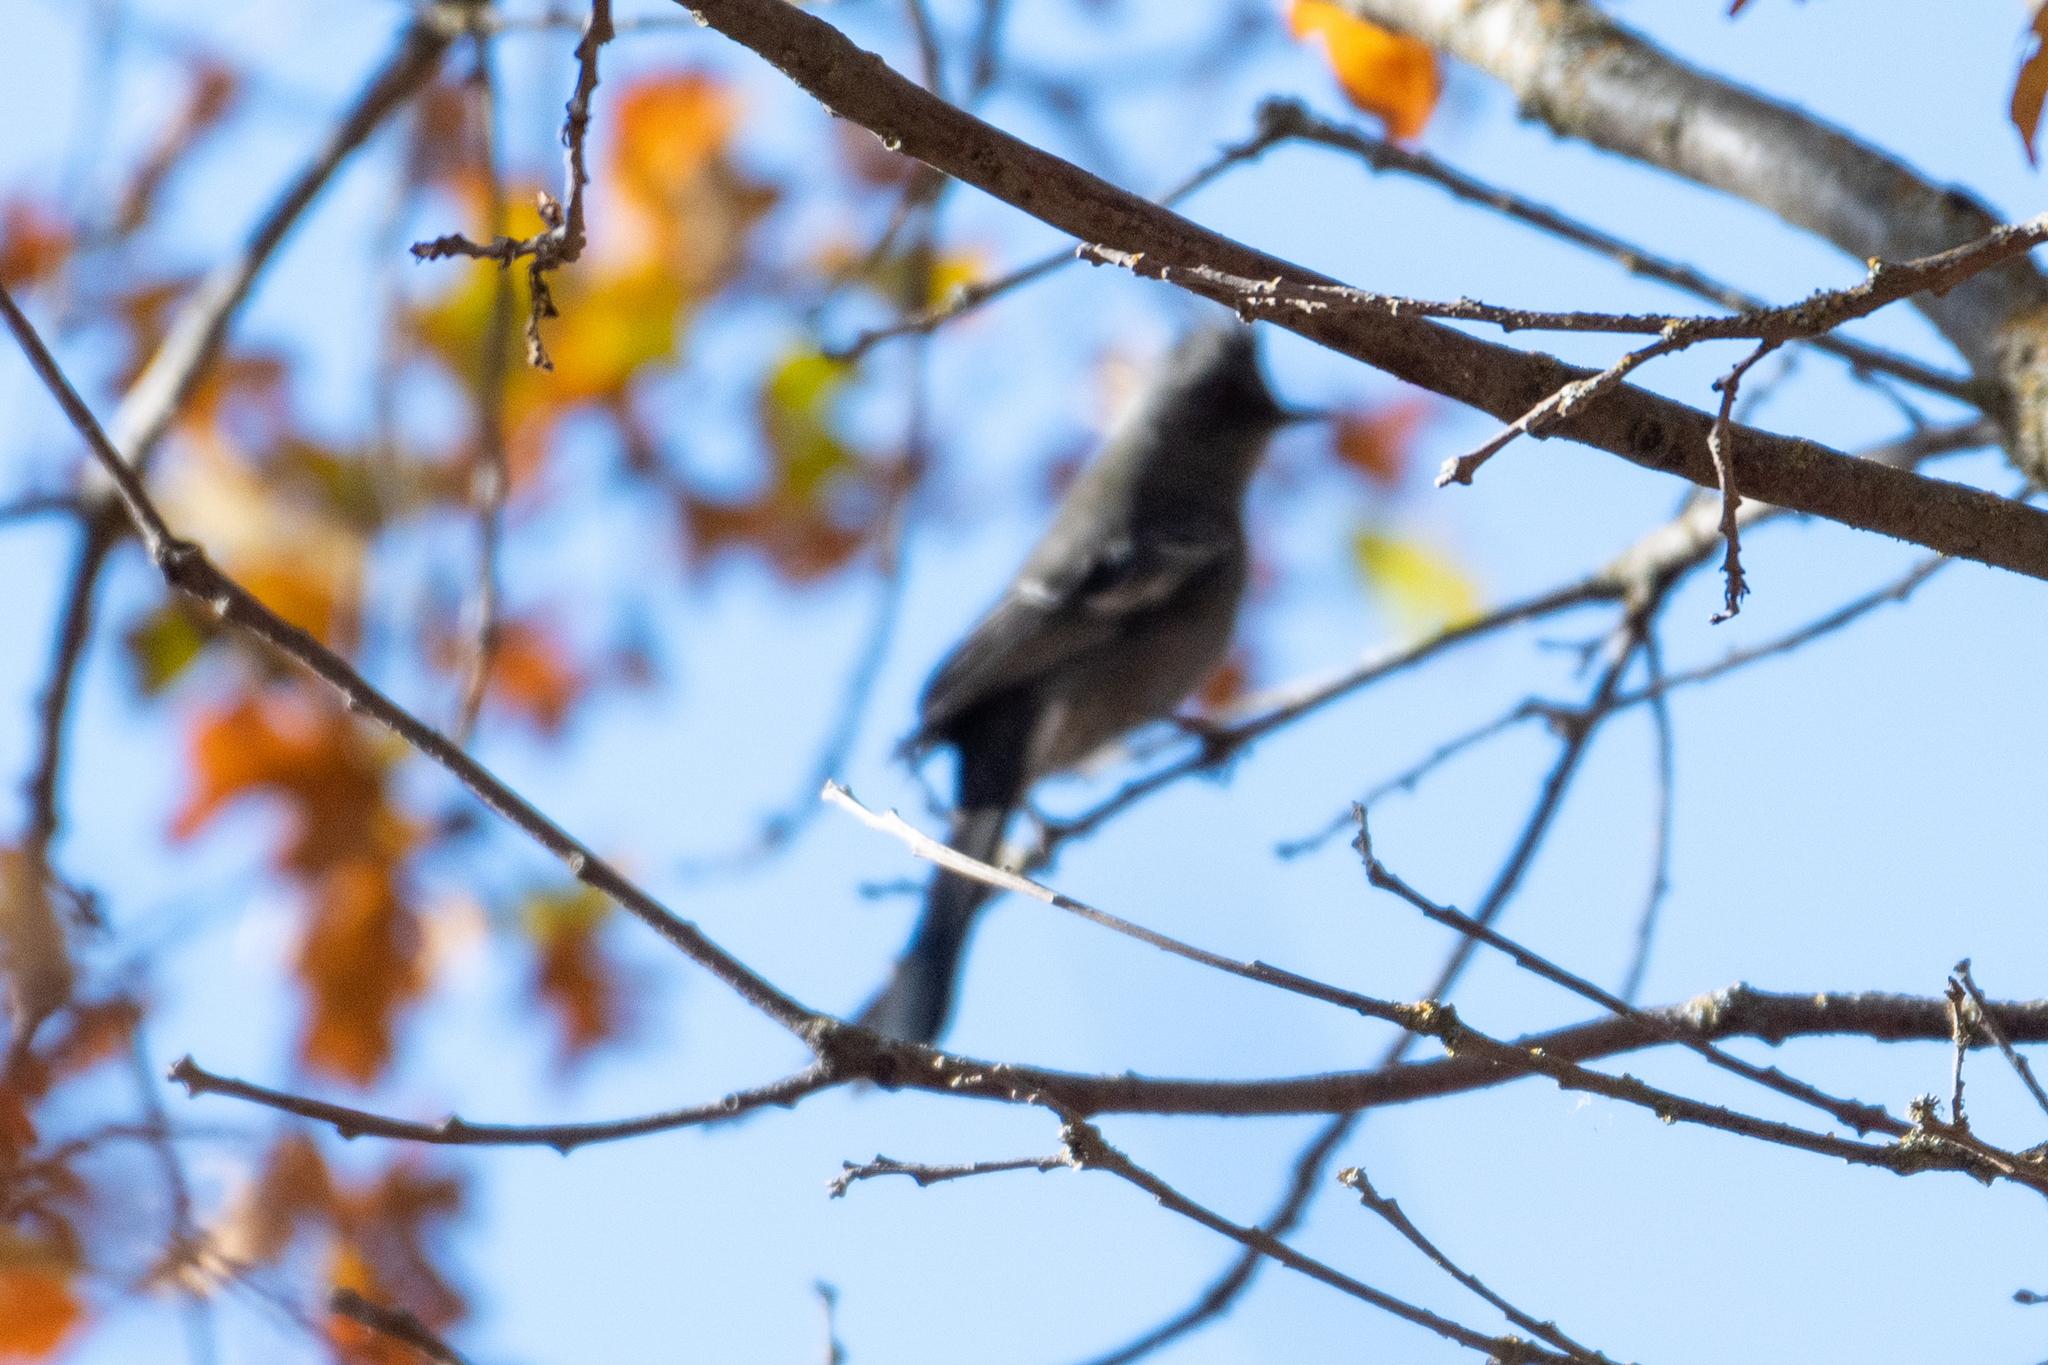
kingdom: Animalia
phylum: Chordata
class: Aves
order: Passeriformes
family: Ptilogonatidae
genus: Phainopepla
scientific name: Phainopepla nitens
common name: Phainopepla
